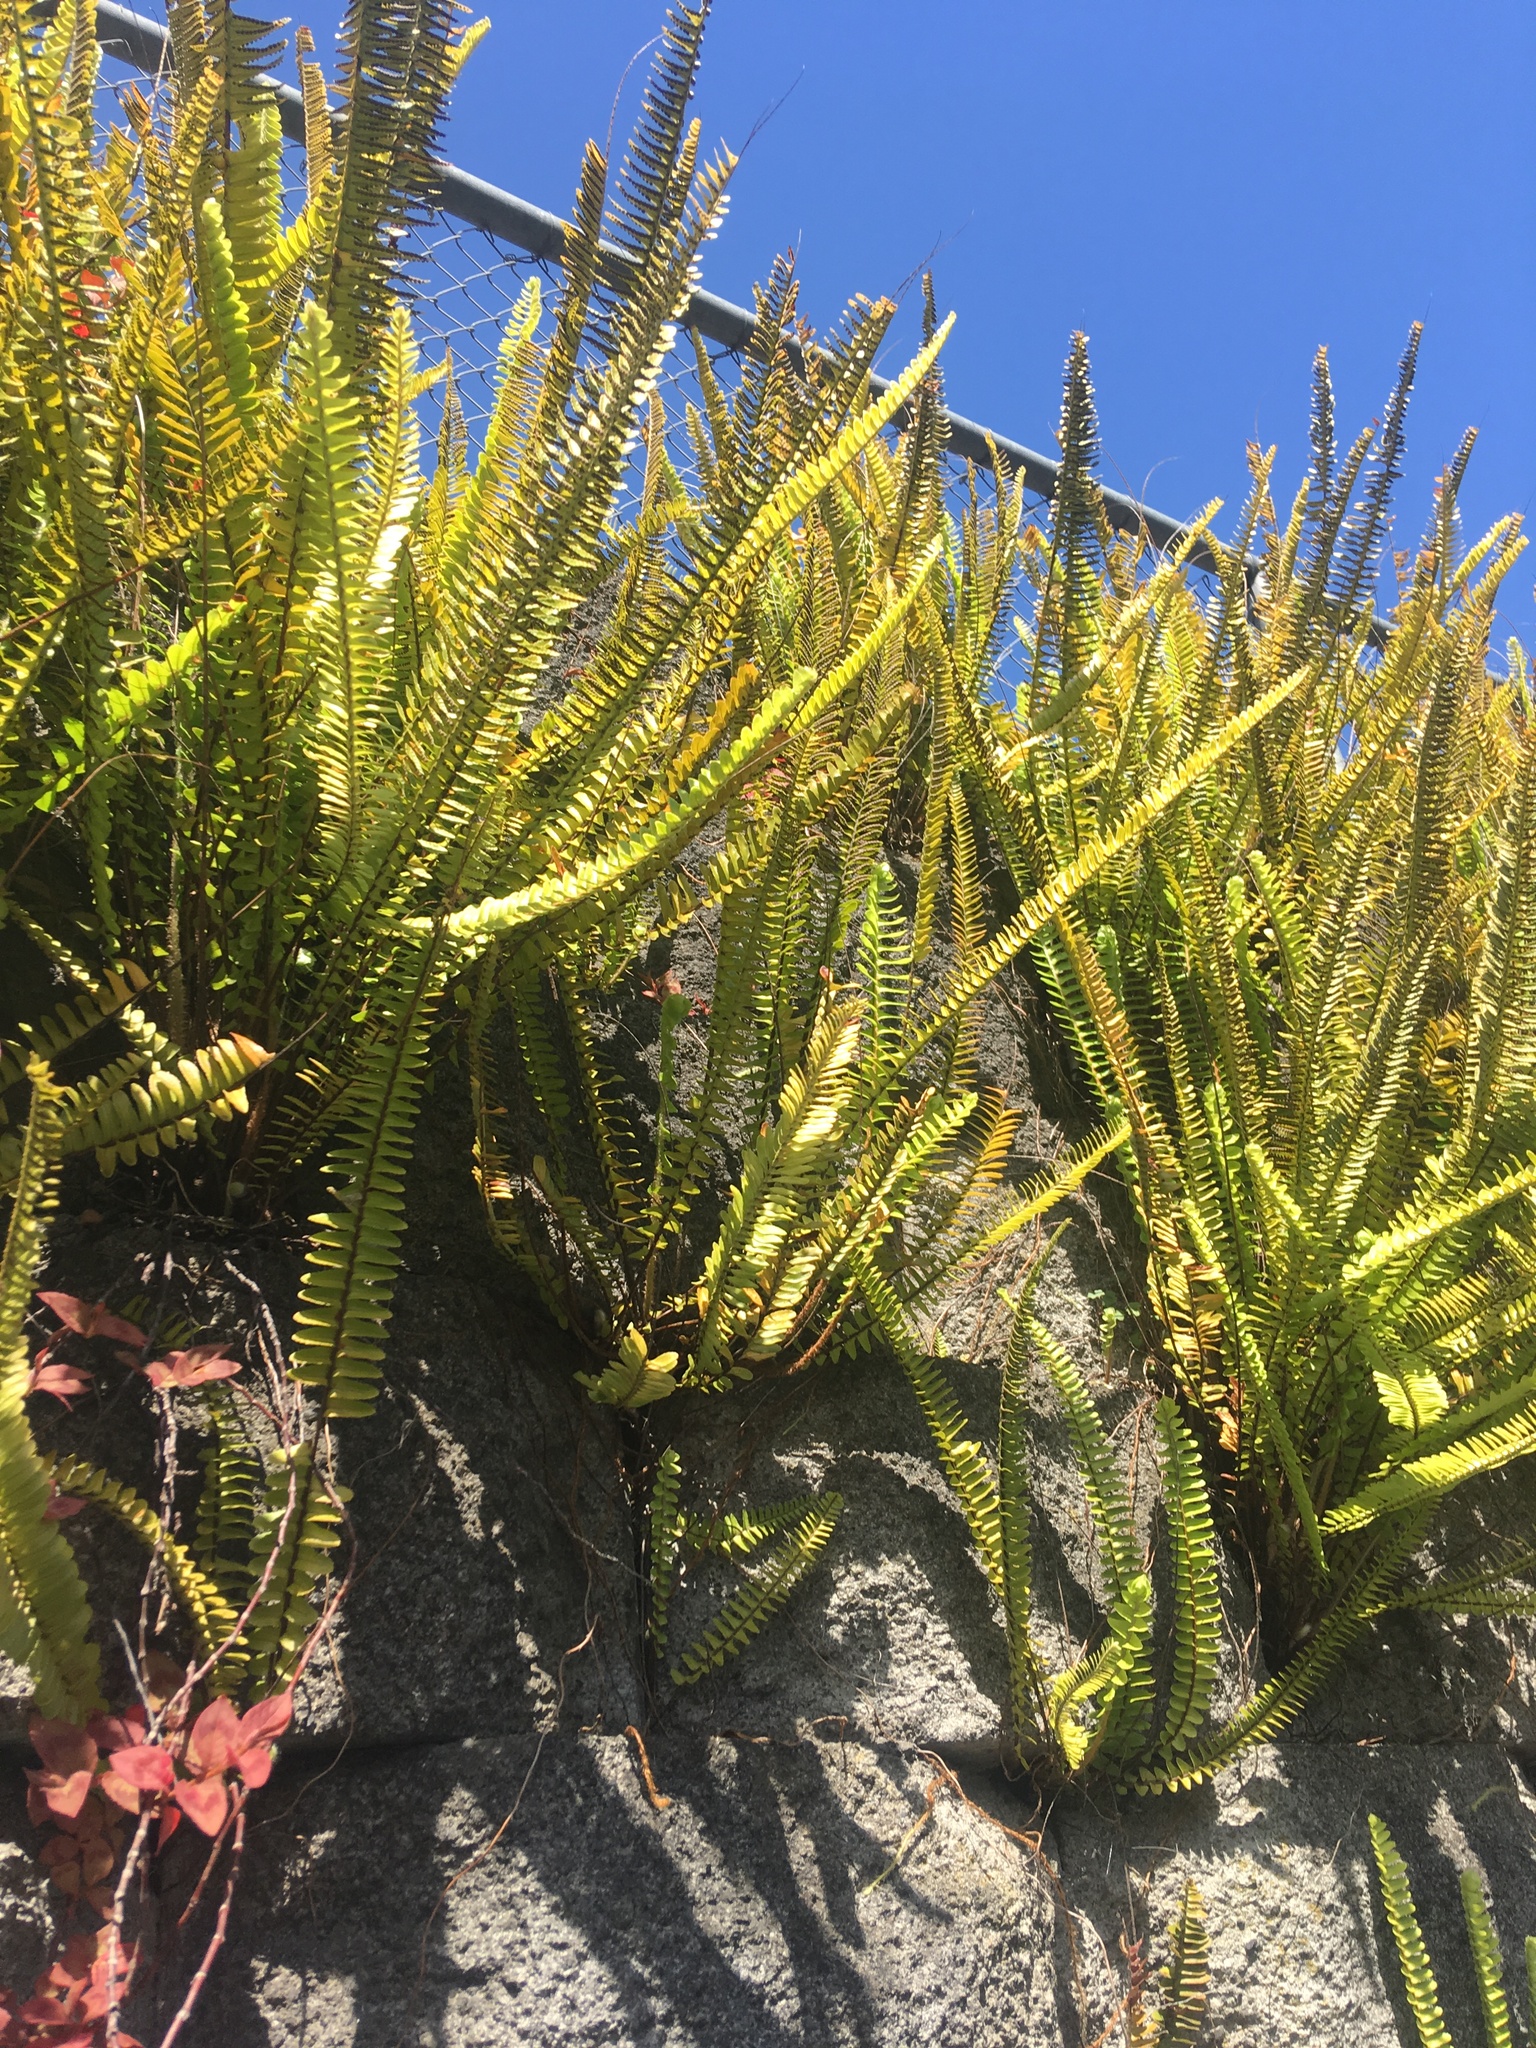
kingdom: Plantae
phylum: Tracheophyta
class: Polypodiopsida
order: Polypodiales
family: Nephrolepidaceae
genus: Nephrolepis
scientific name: Nephrolepis cordifolia
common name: Narrow swordfern
